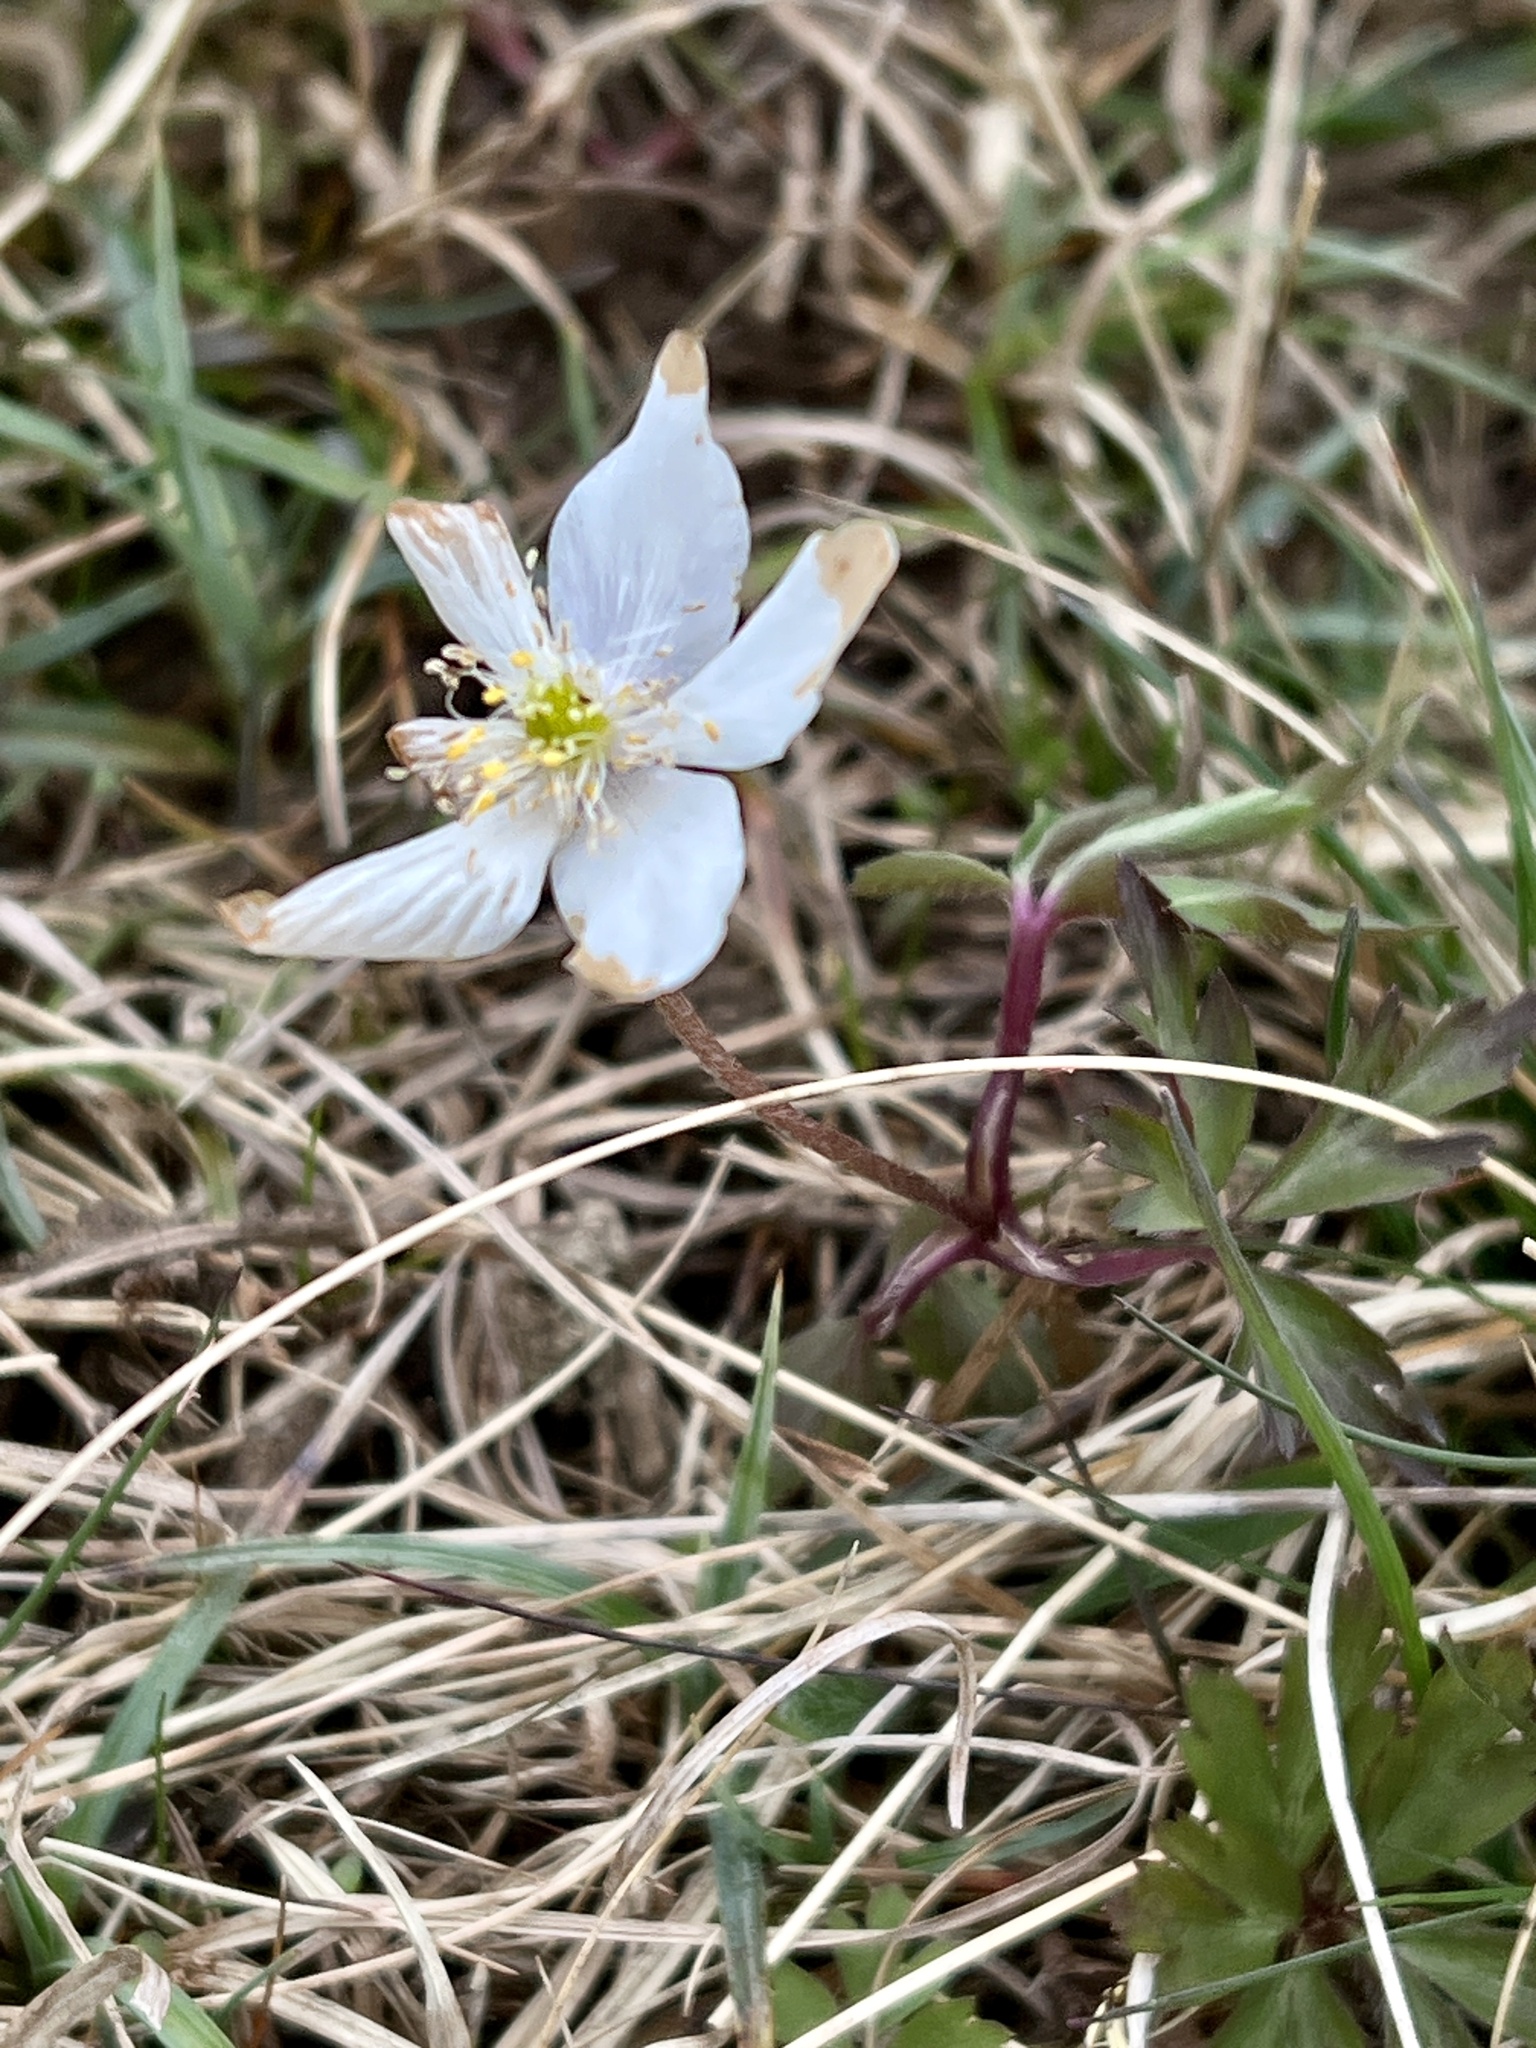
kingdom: Plantae
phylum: Tracheophyta
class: Magnoliopsida
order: Ranunculales
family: Ranunculaceae
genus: Anemone
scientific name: Anemone nemorosa
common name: Wood anemone
